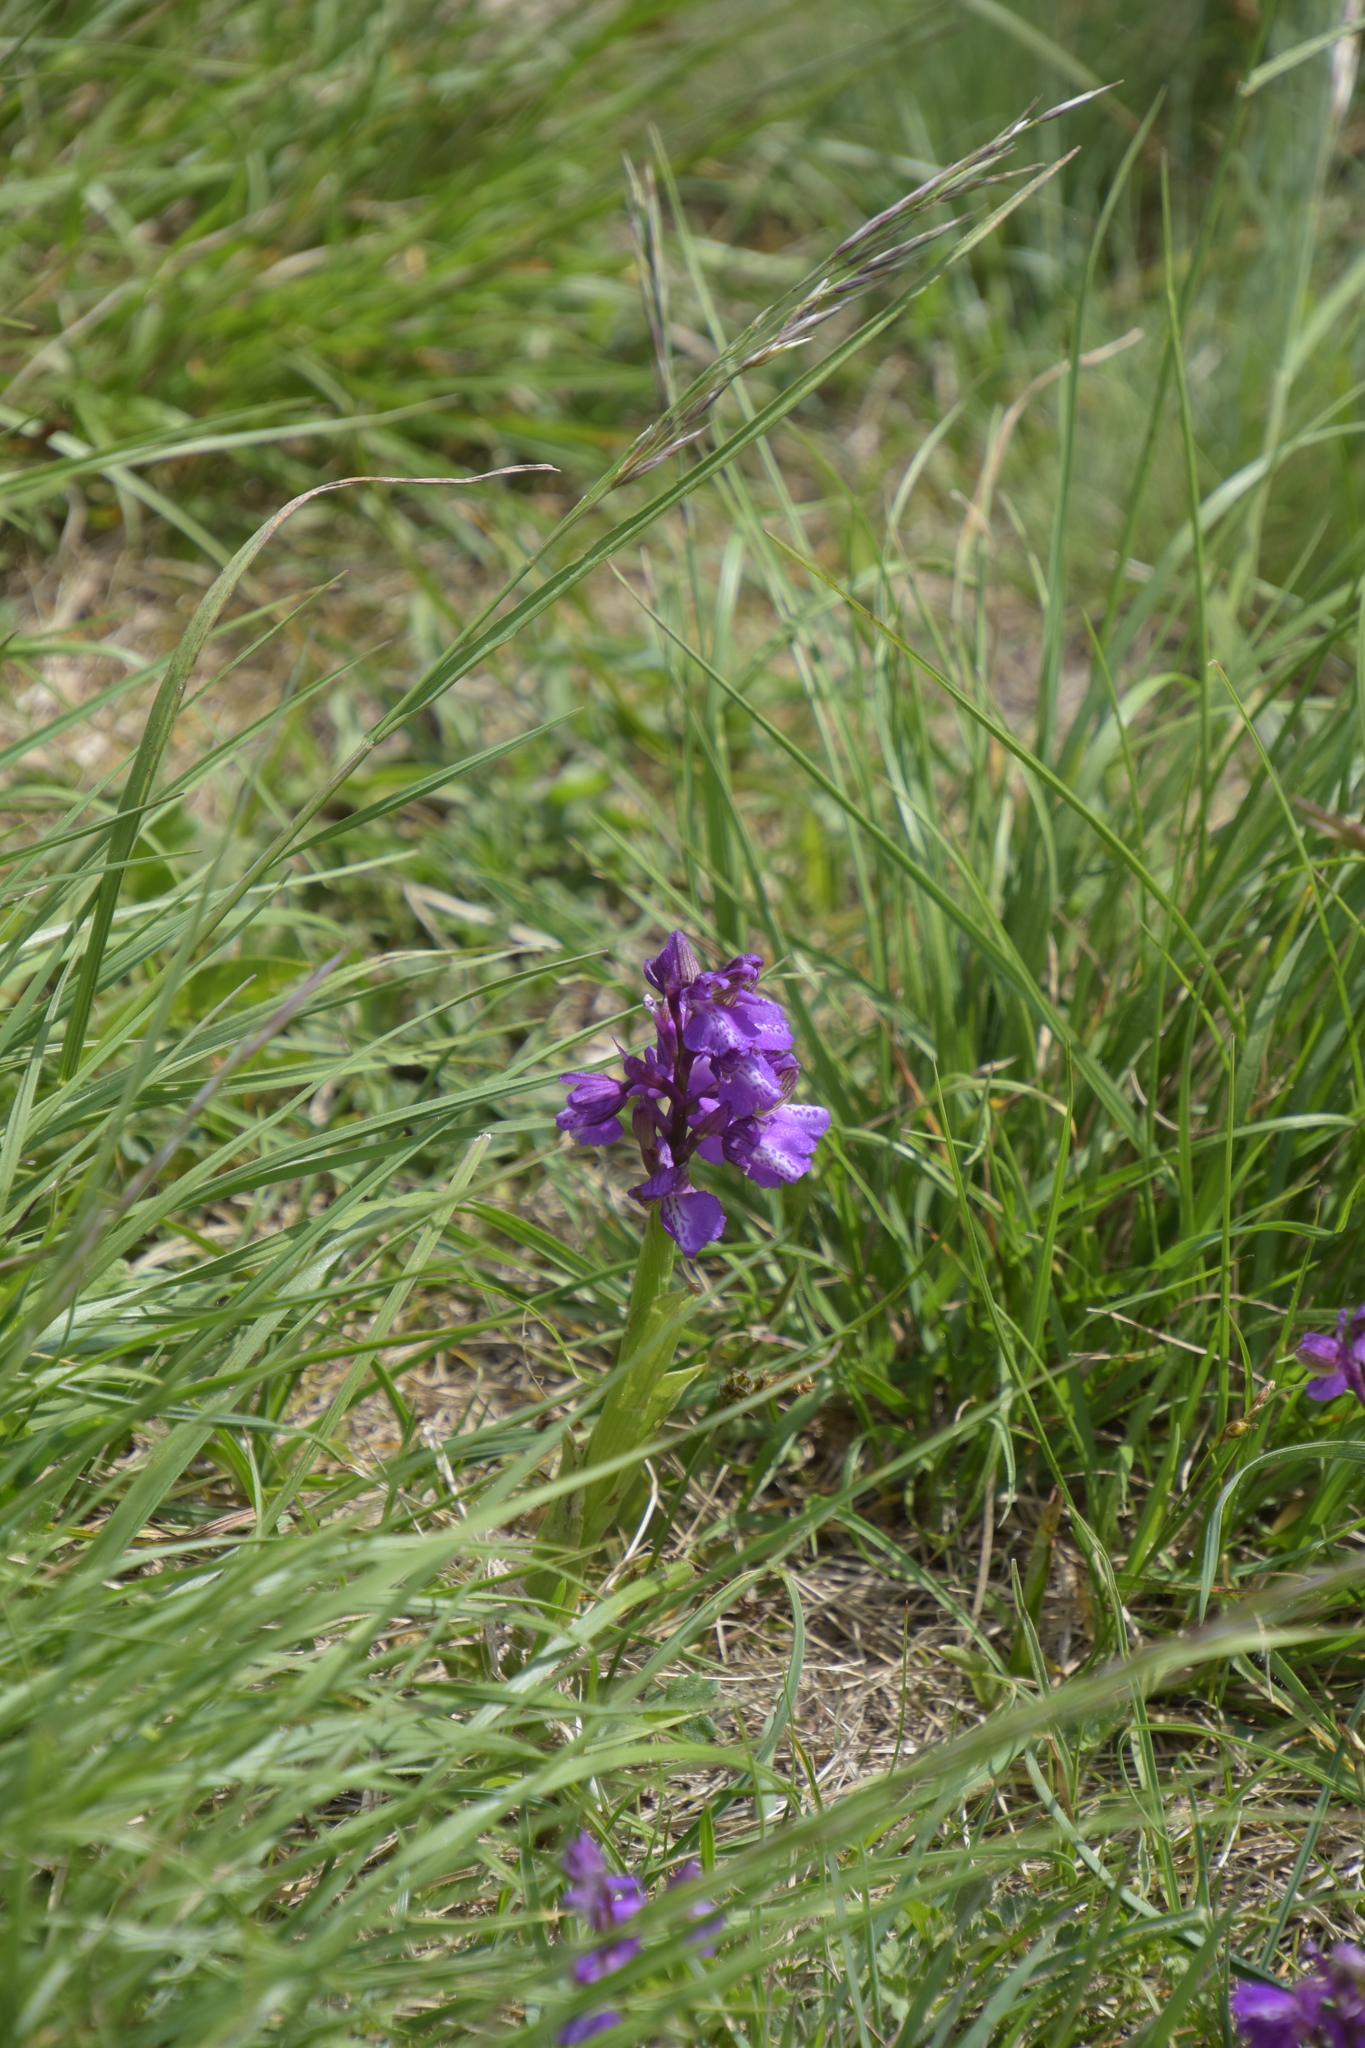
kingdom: Plantae
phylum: Tracheophyta
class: Liliopsida
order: Asparagales
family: Orchidaceae
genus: Anacamptis
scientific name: Anacamptis morio
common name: Green-winged orchid
